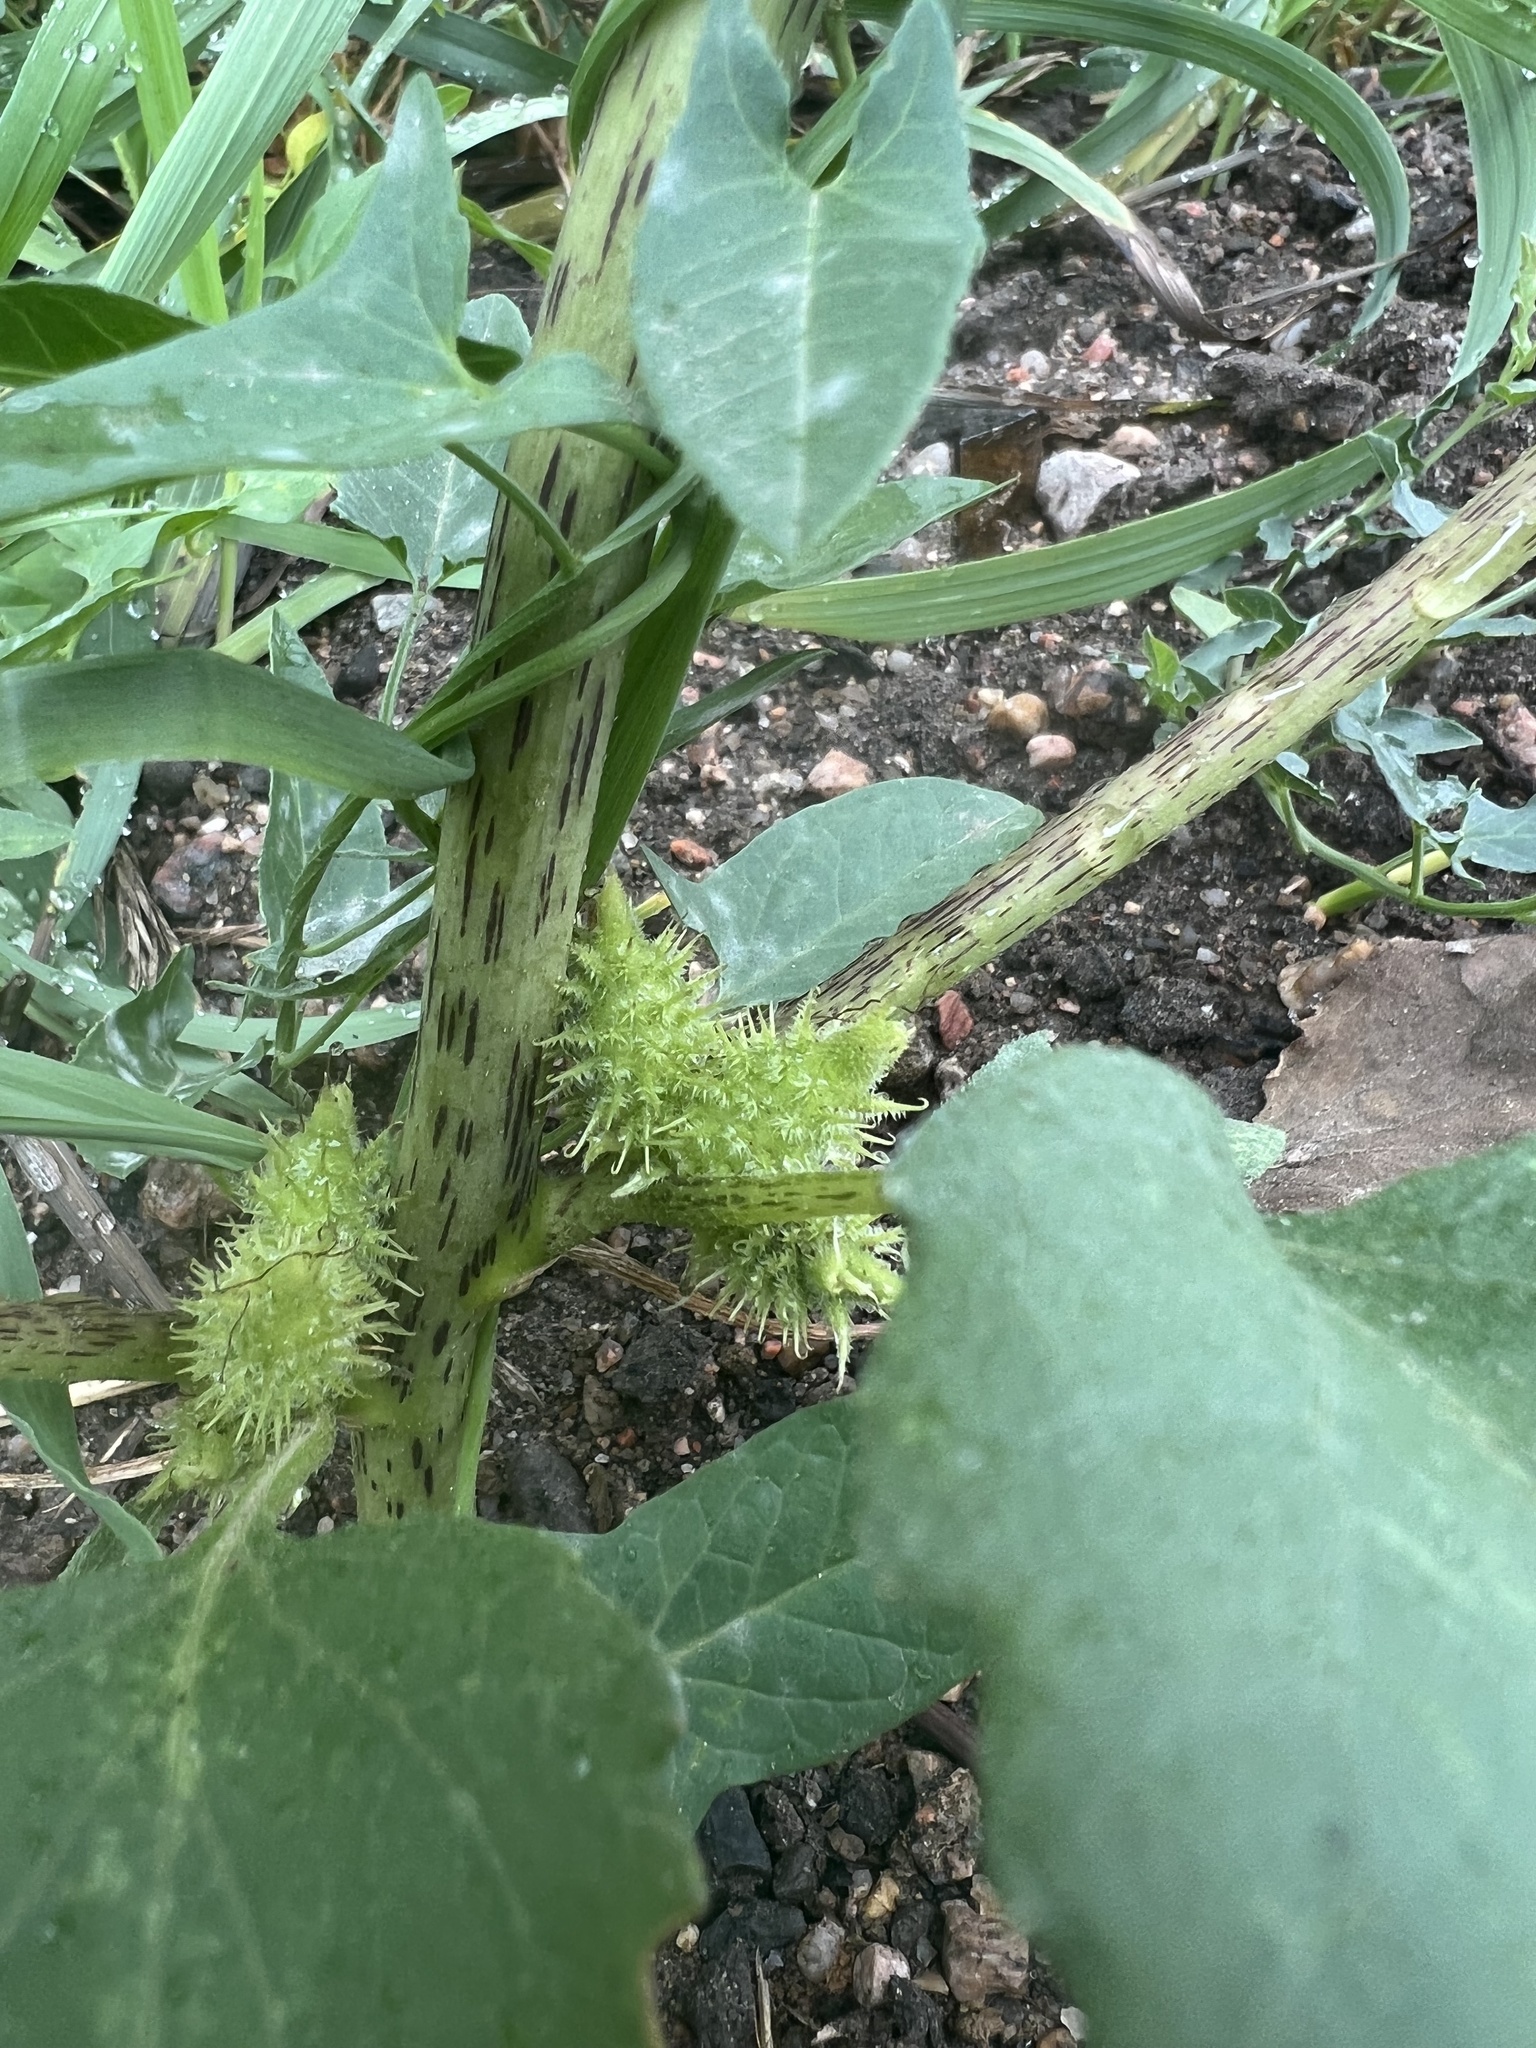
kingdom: Plantae
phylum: Tracheophyta
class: Magnoliopsida
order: Asterales
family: Asteraceae
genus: Xanthium
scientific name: Xanthium strumarium
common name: Rough cocklebur
